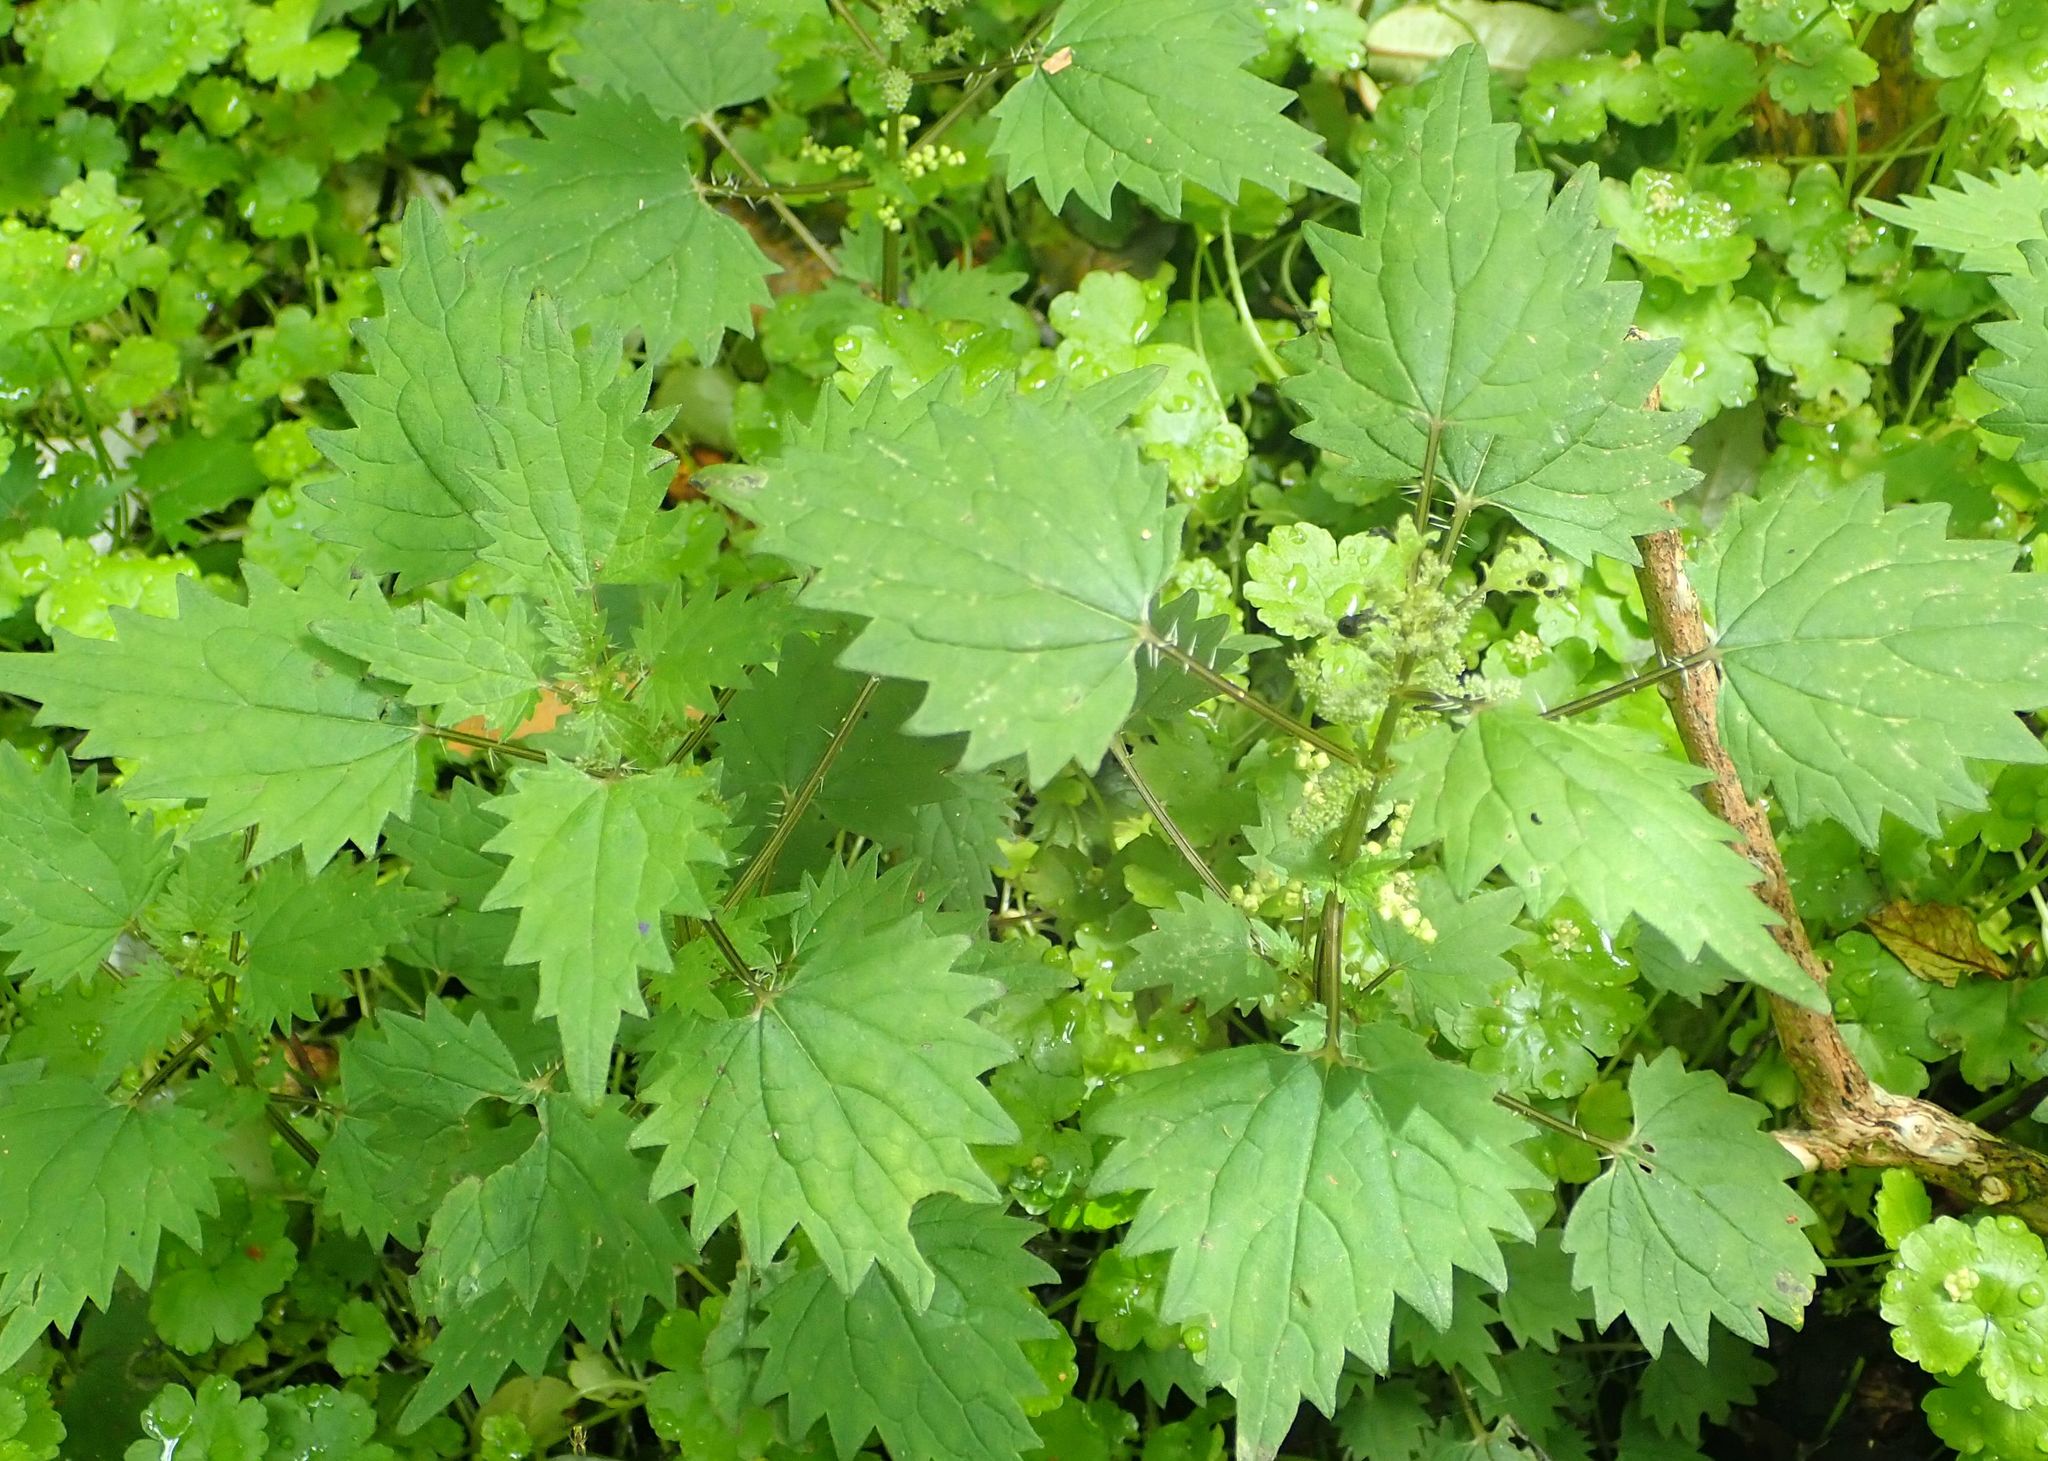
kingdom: Plantae
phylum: Tracheophyta
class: Magnoliopsida
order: Rosales
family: Urticaceae
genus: Urtica
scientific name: Urtica sykesii
